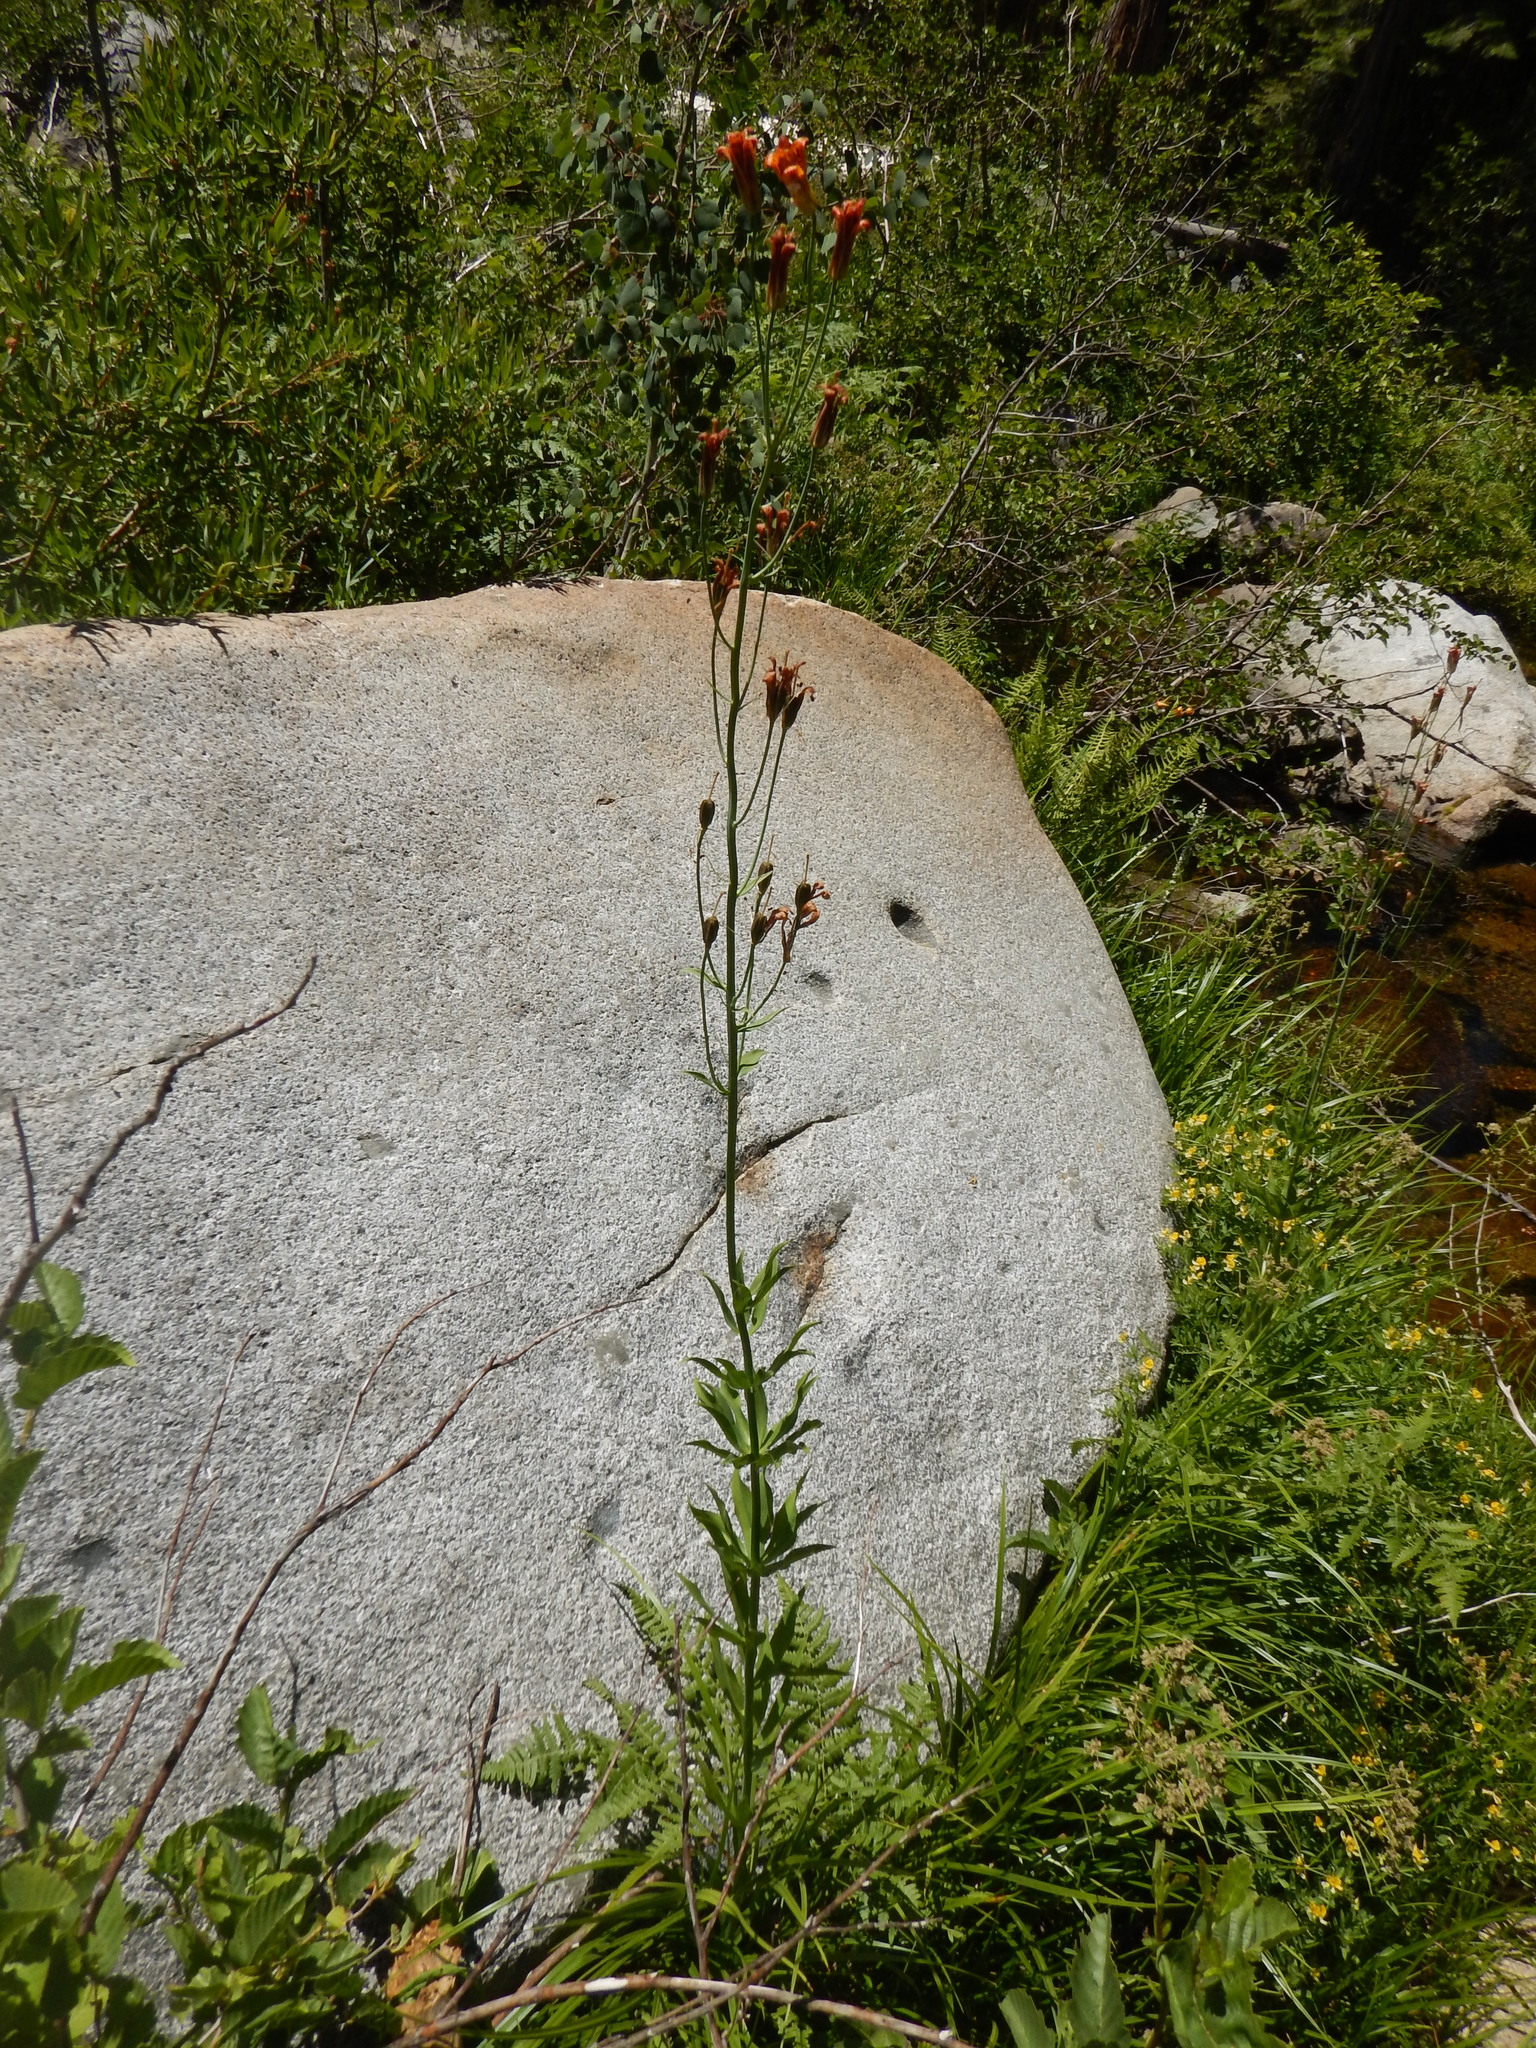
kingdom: Plantae
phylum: Tracheophyta
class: Liliopsida
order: Liliales
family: Liliaceae
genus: Lilium
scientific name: Lilium parvum
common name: Alpine lily
